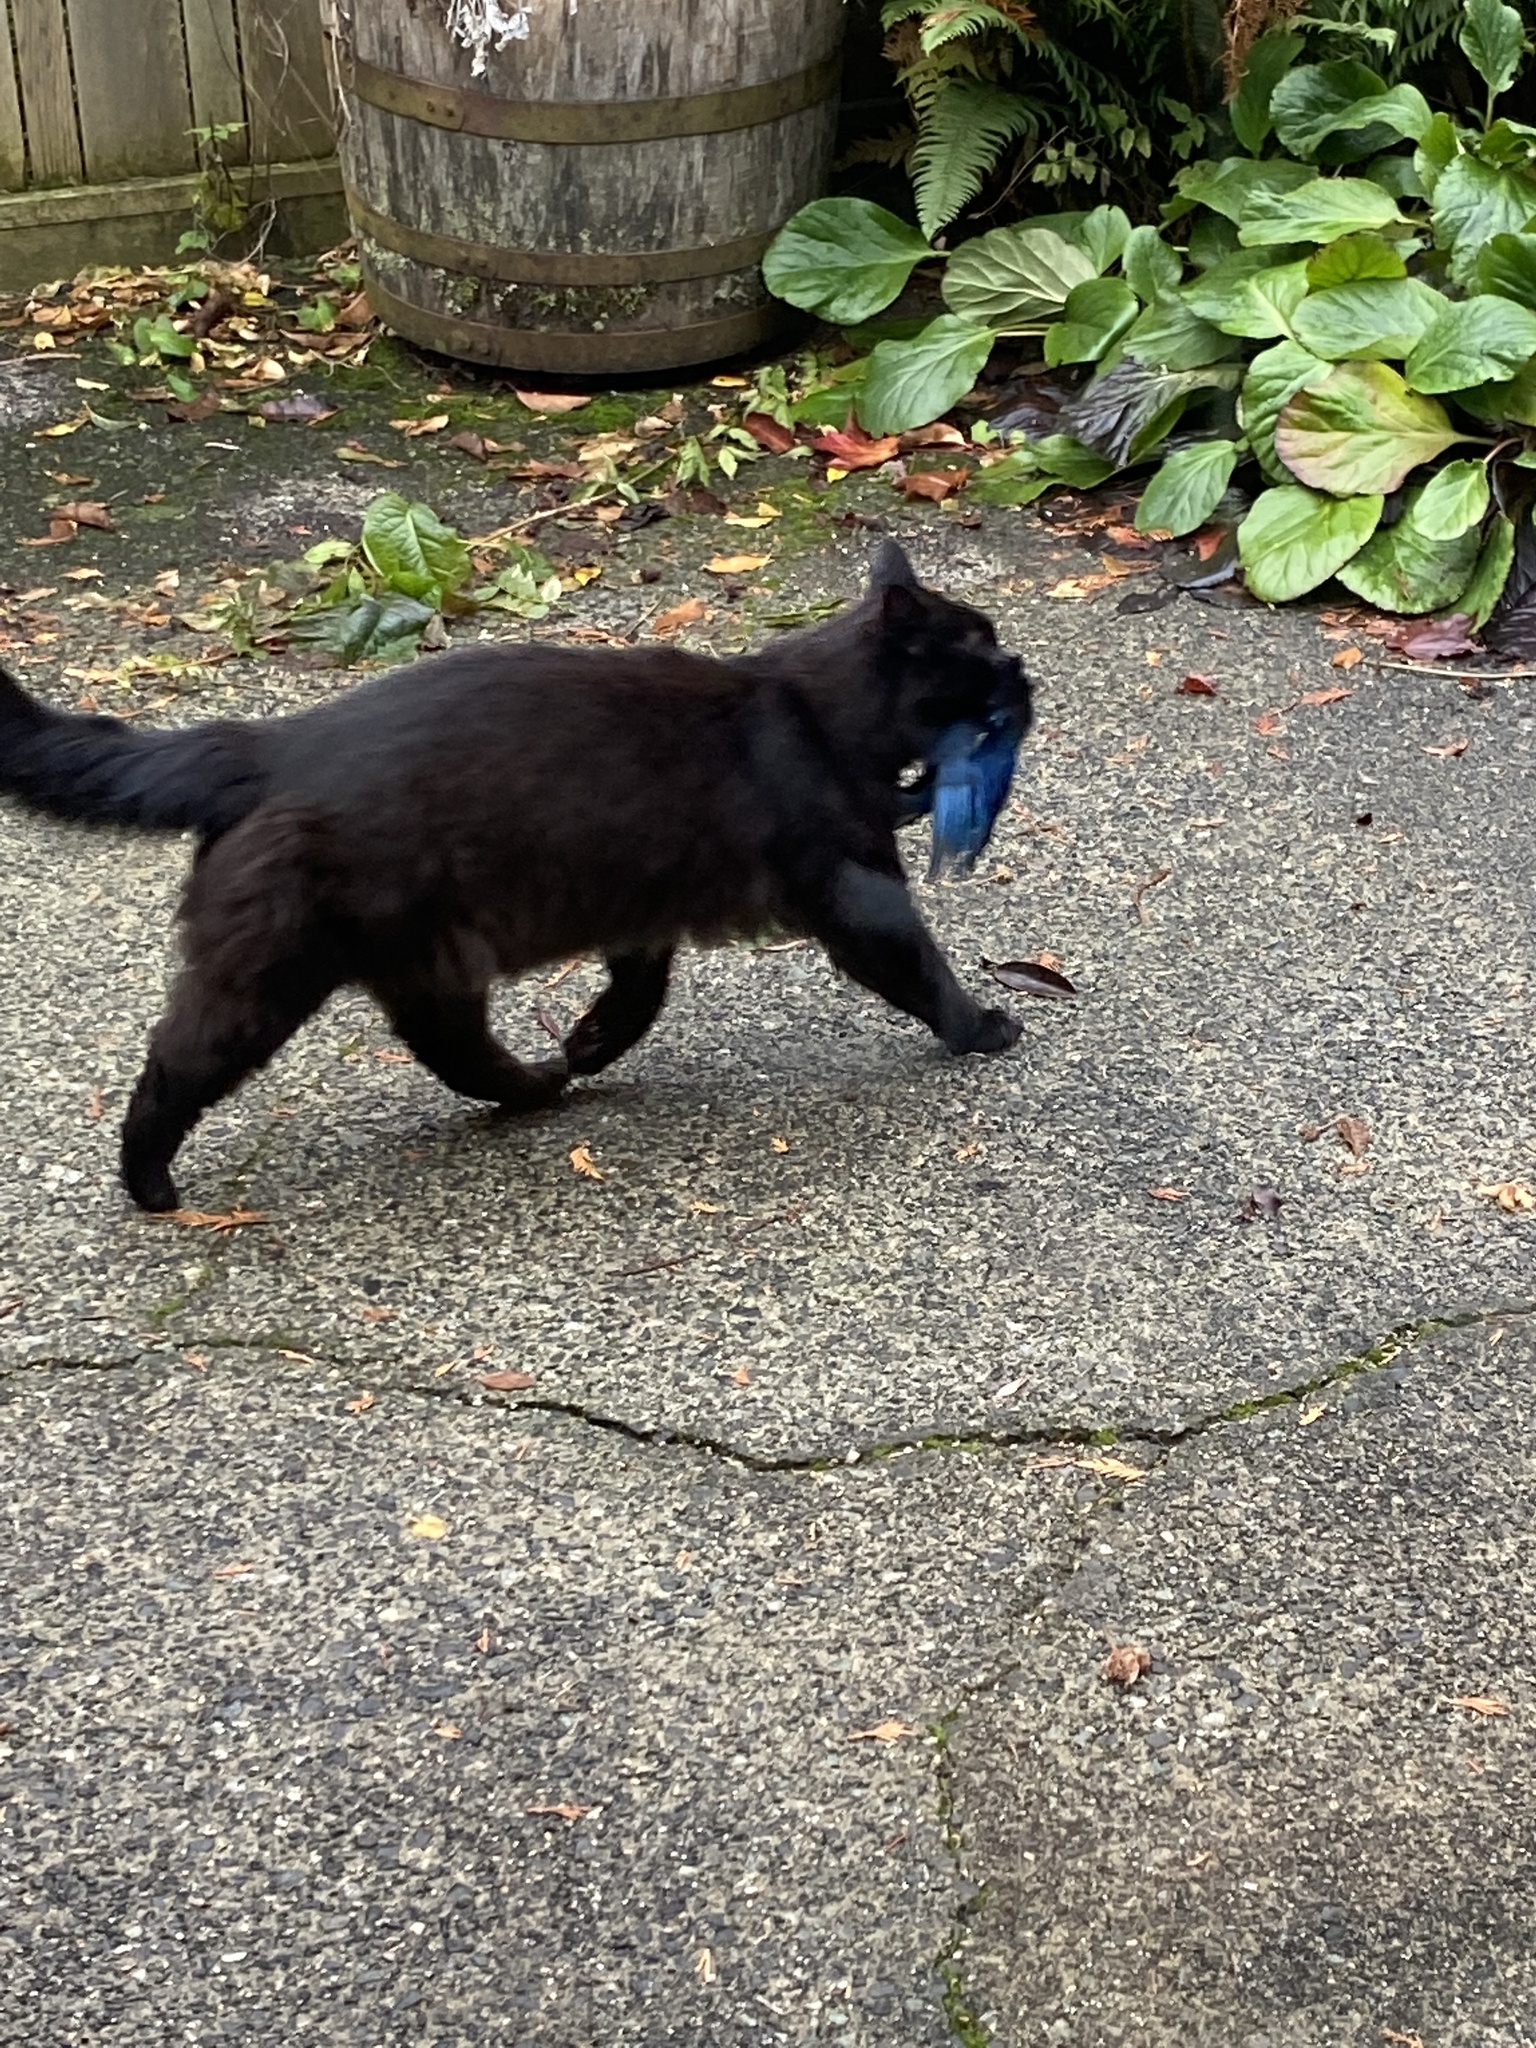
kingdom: Animalia
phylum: Chordata
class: Aves
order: Passeriformes
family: Corvidae
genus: Cyanocitta
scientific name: Cyanocitta stelleri
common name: Steller's jay
